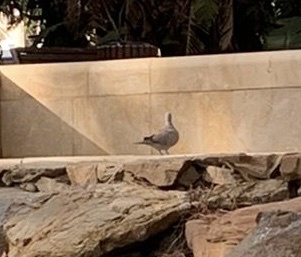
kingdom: Animalia
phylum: Chordata
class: Aves
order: Columbiformes
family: Columbidae
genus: Streptopelia
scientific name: Streptopelia decaocto
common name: Eurasian collared dove
